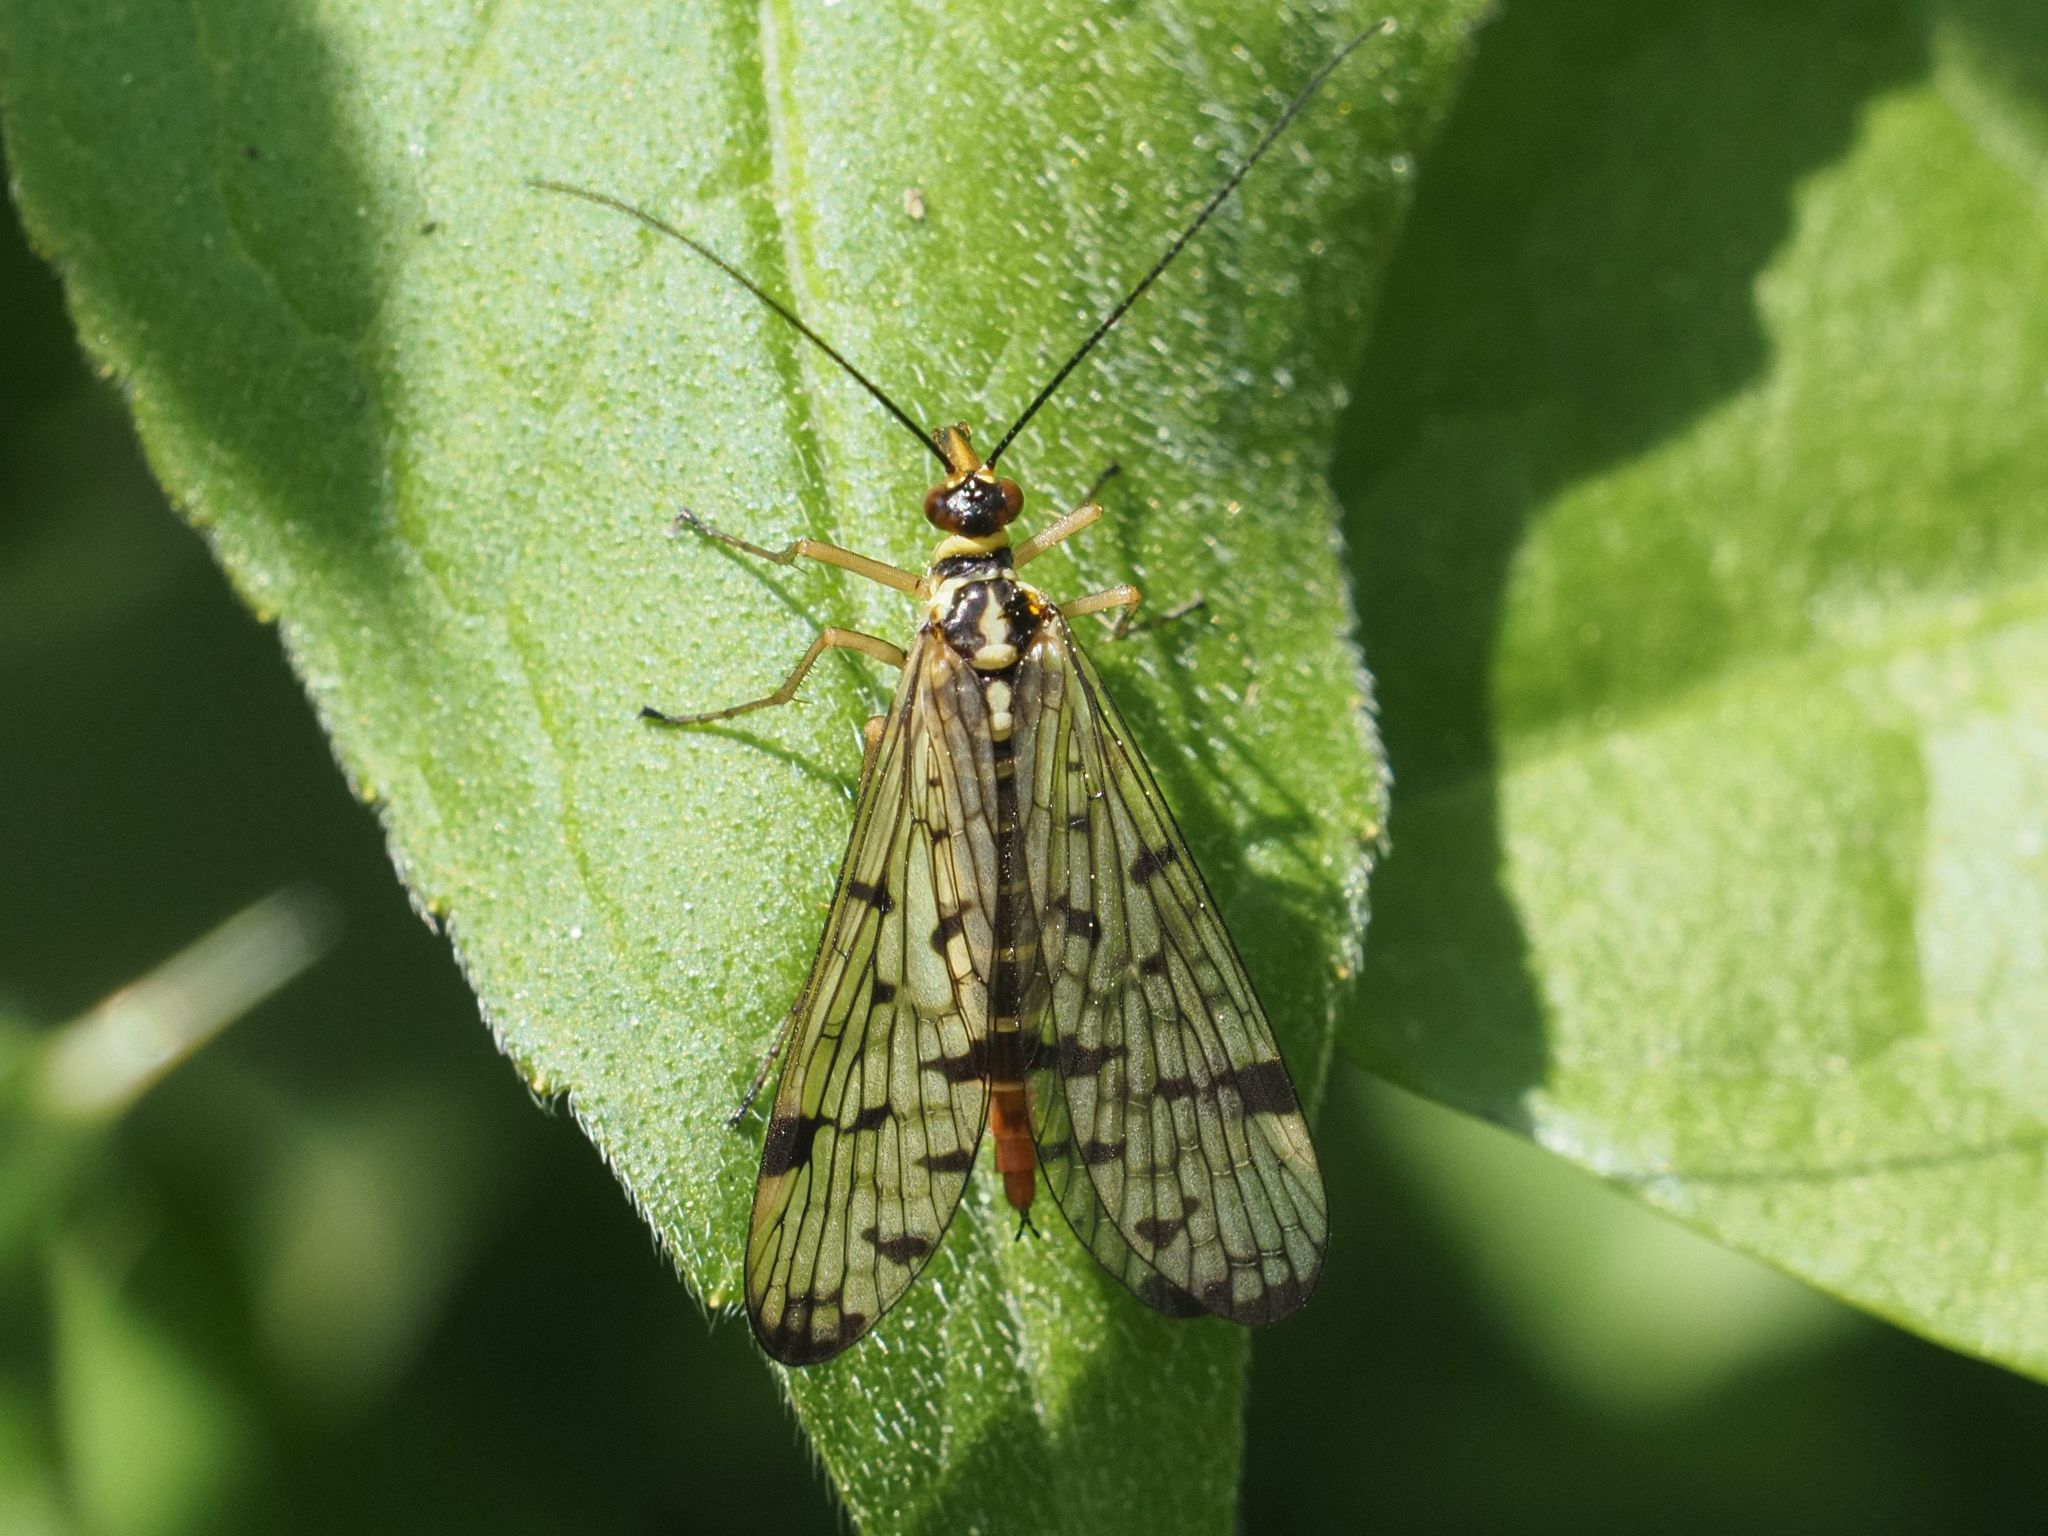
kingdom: Animalia
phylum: Arthropoda
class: Insecta
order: Mecoptera
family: Panorpidae
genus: Panorpa
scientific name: Panorpa germanica
